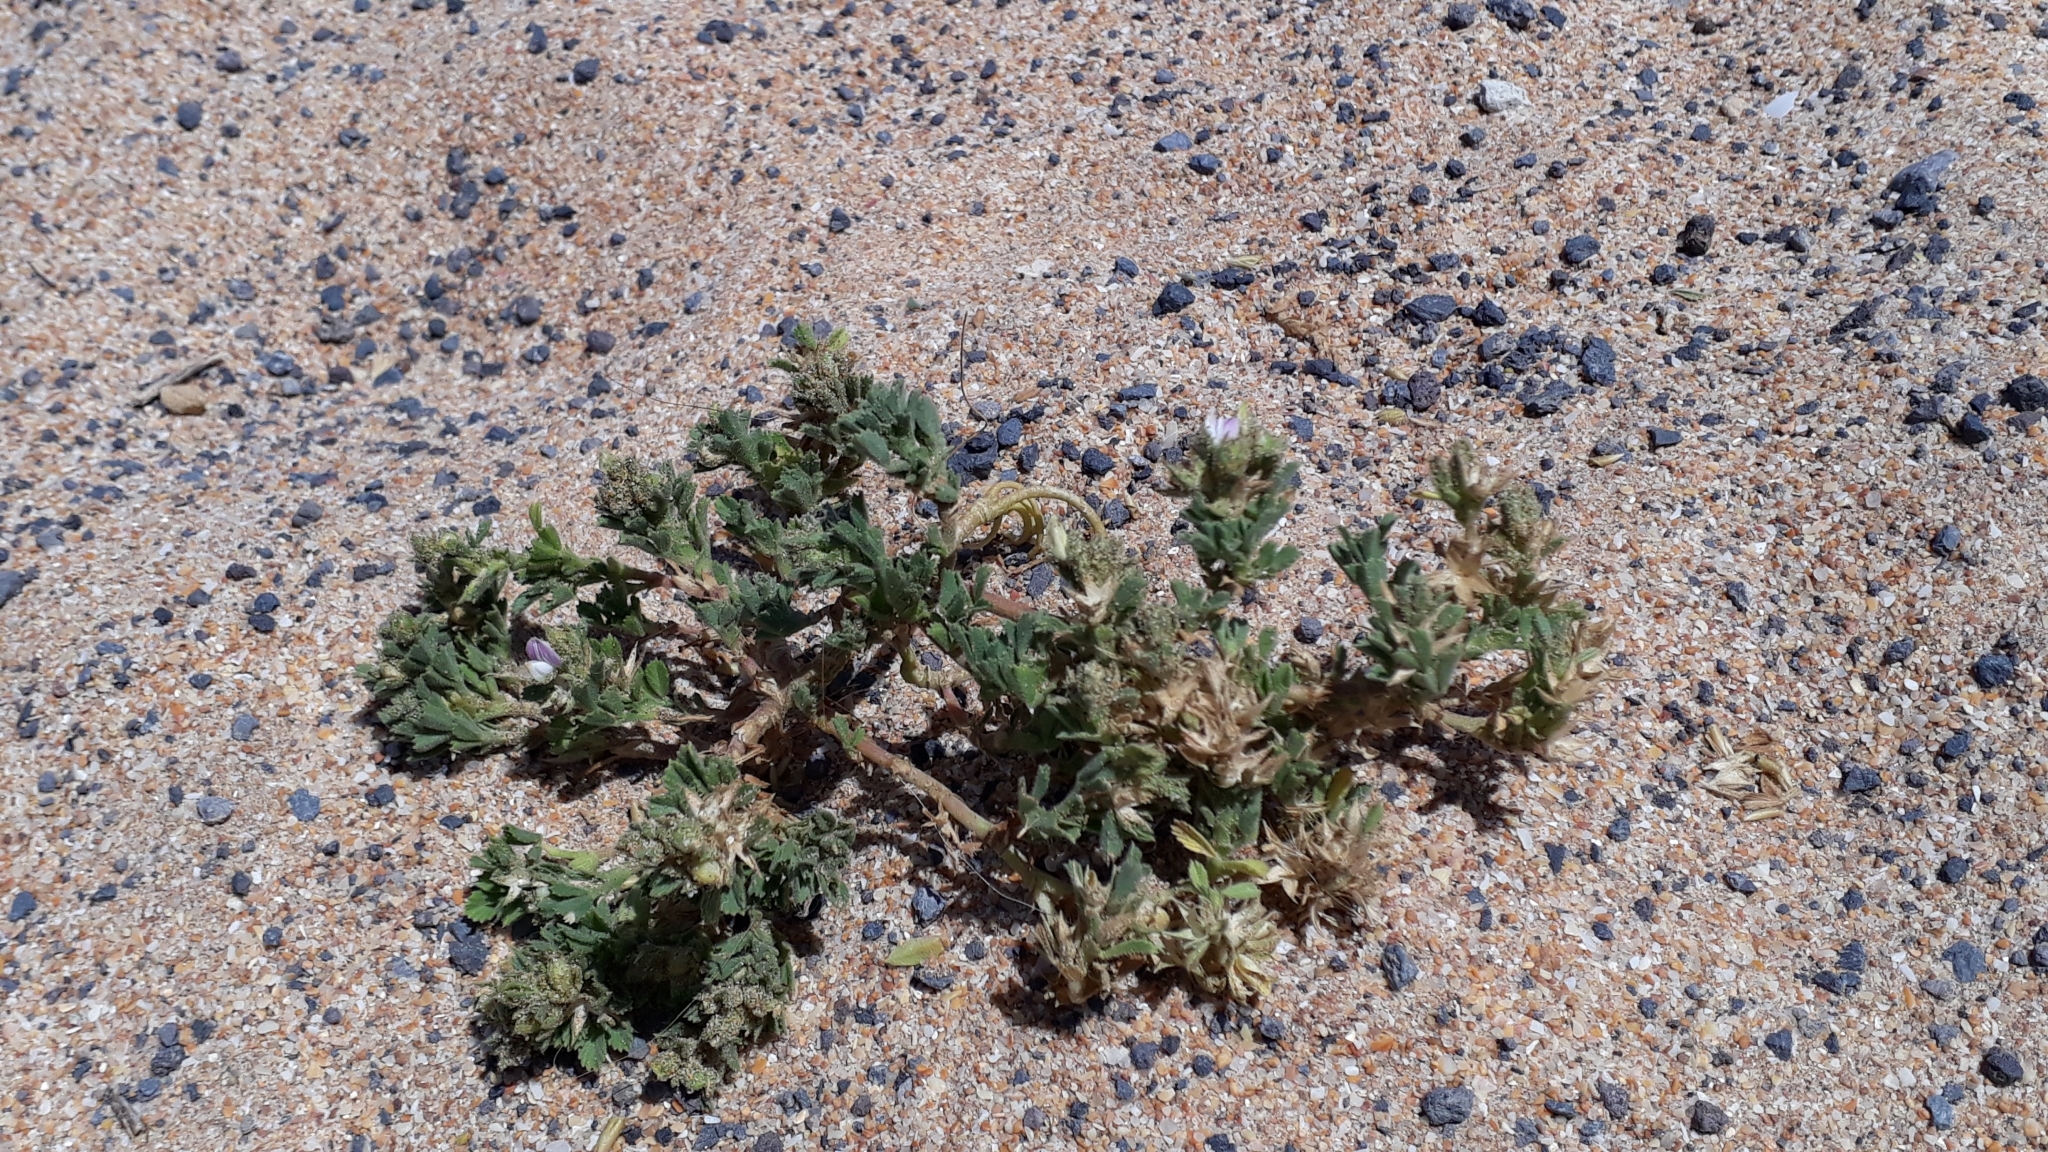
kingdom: Plantae
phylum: Tracheophyta
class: Magnoliopsida
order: Fabales
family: Fabaceae
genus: Ononis
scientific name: Ononis tournefortii
